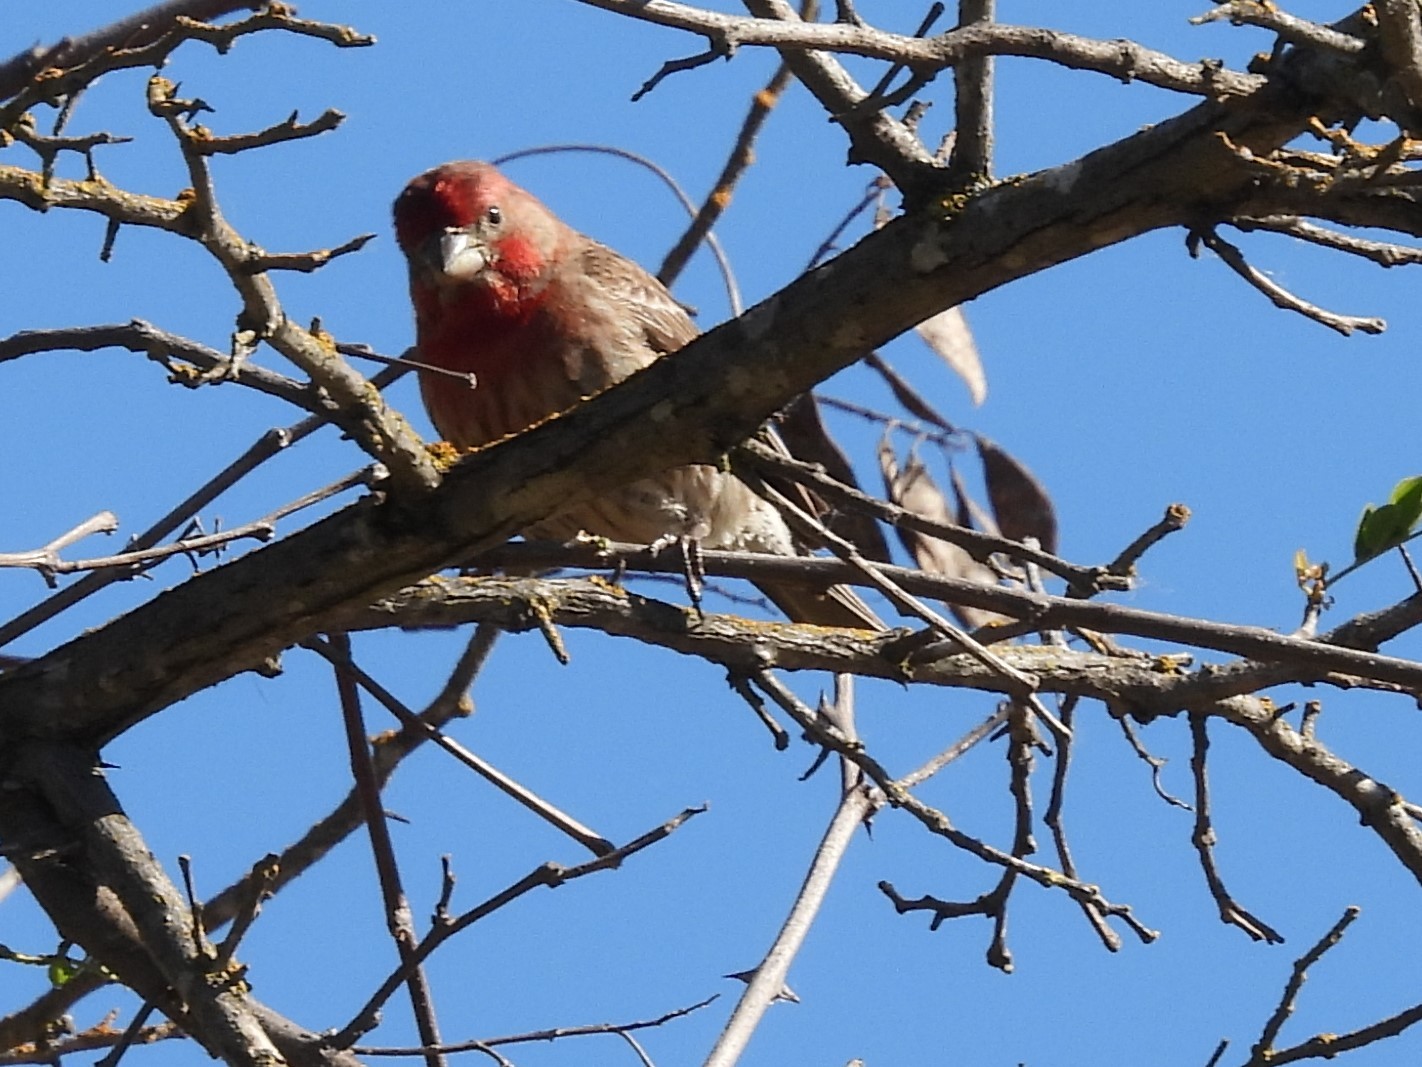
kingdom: Animalia
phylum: Chordata
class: Aves
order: Passeriformes
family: Fringillidae
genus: Haemorhous
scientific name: Haemorhous mexicanus
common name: House finch
